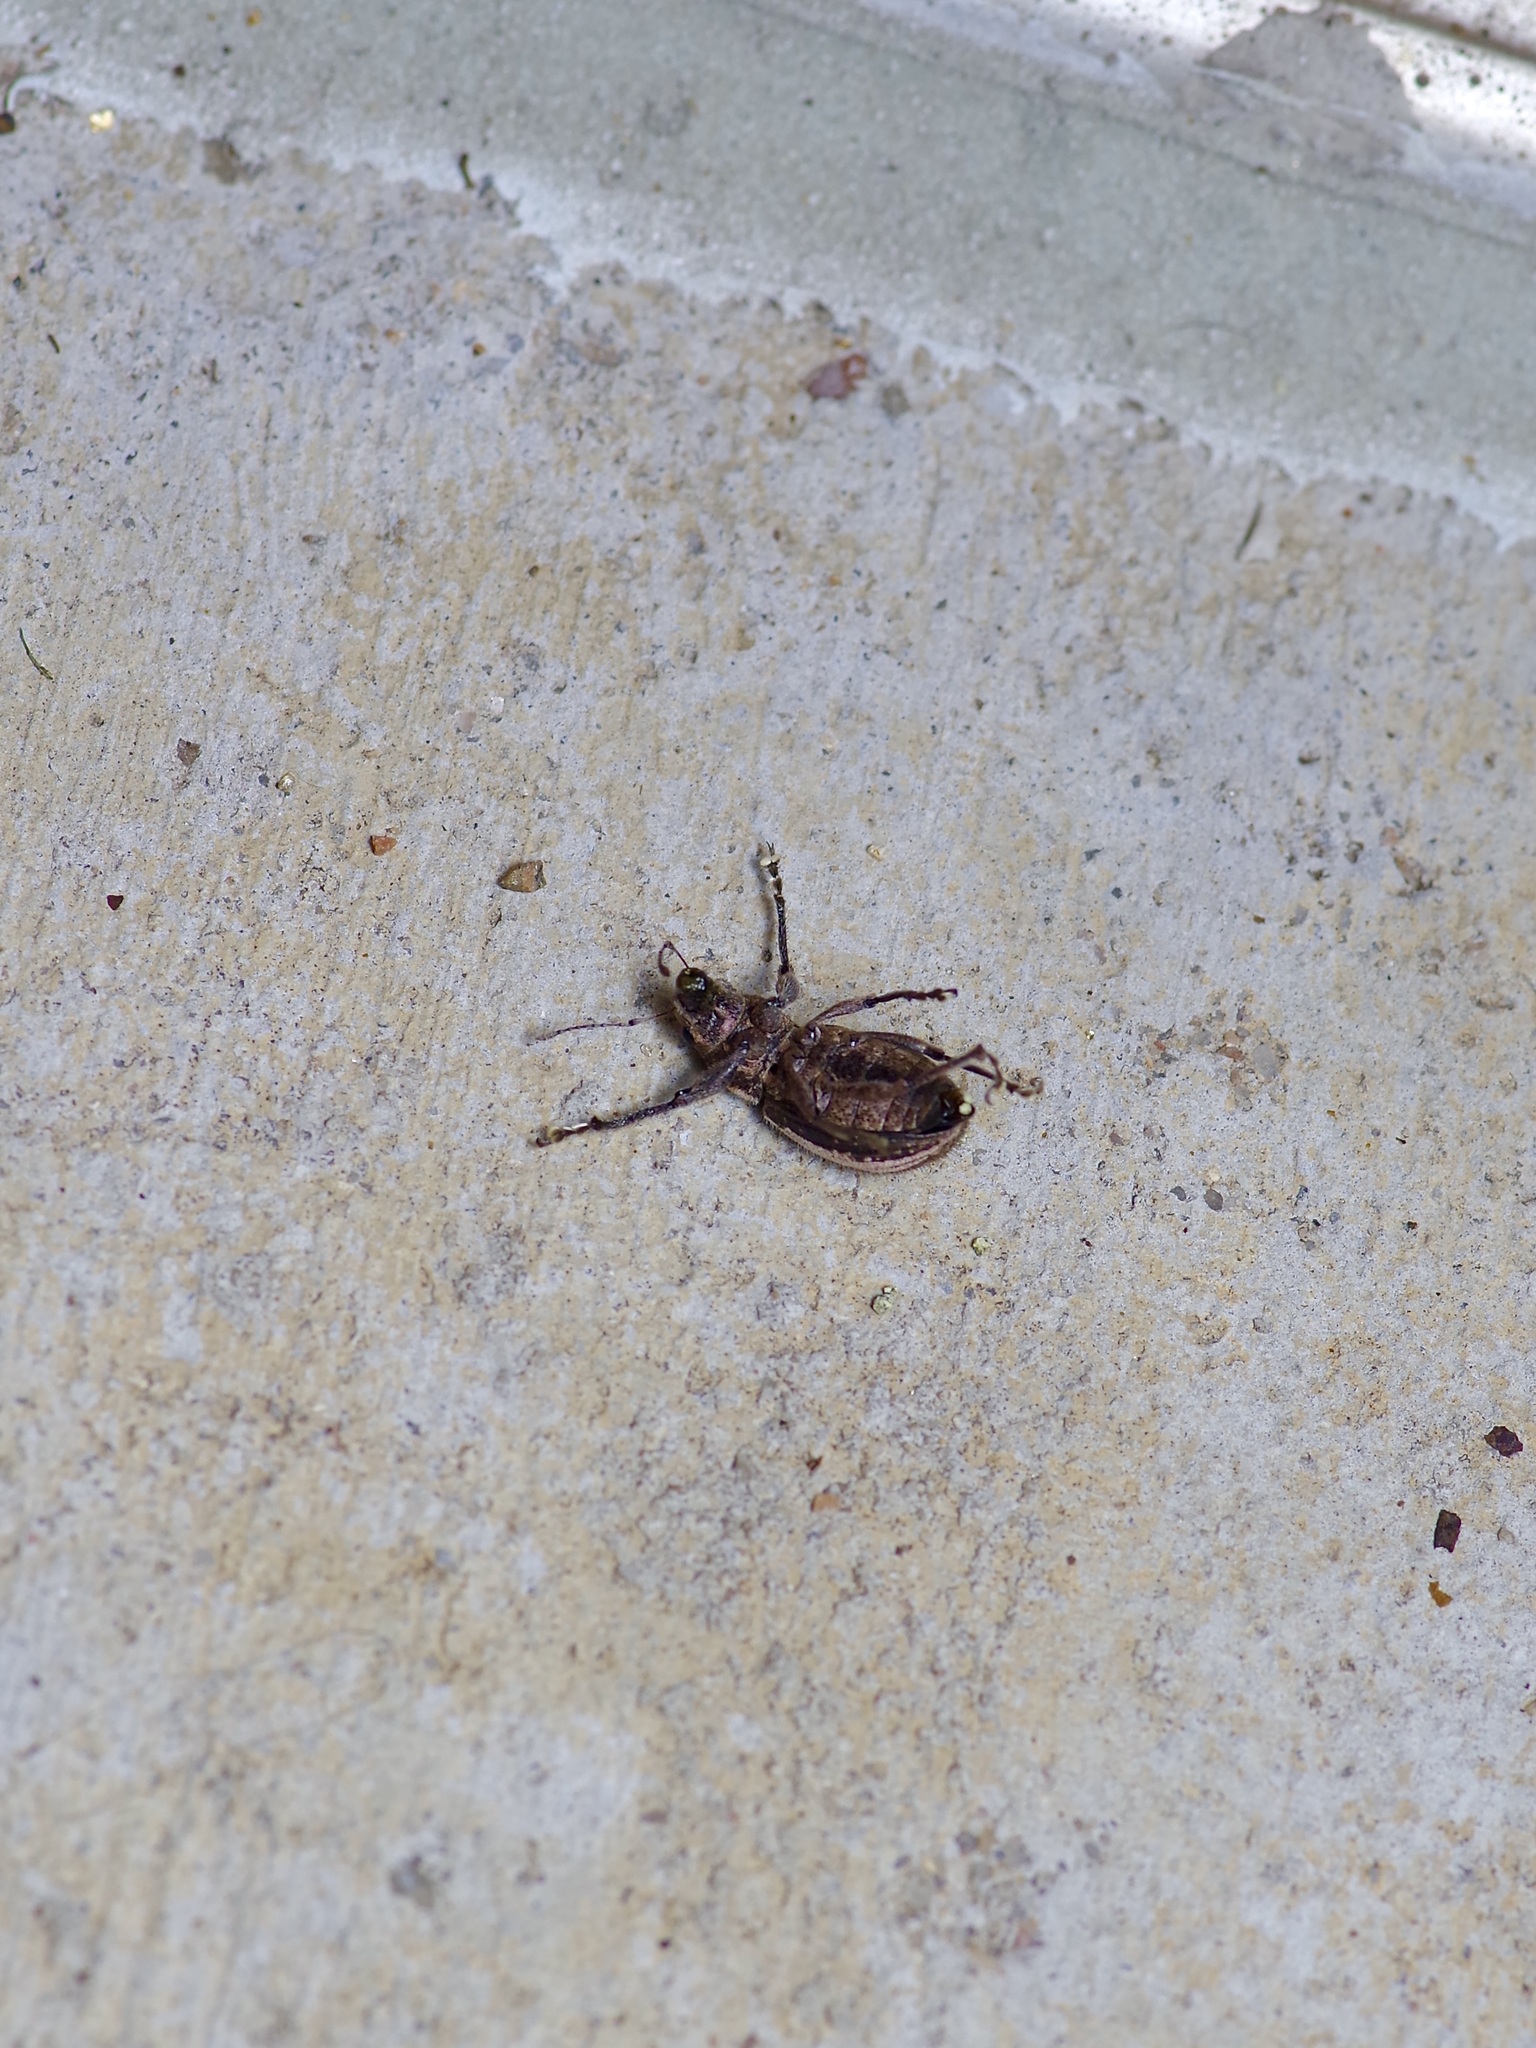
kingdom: Animalia
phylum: Arthropoda
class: Insecta
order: Coleoptera
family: Curculionidae
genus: Naupactus
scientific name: Naupactus leucoloma
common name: Whitefringed beetle
